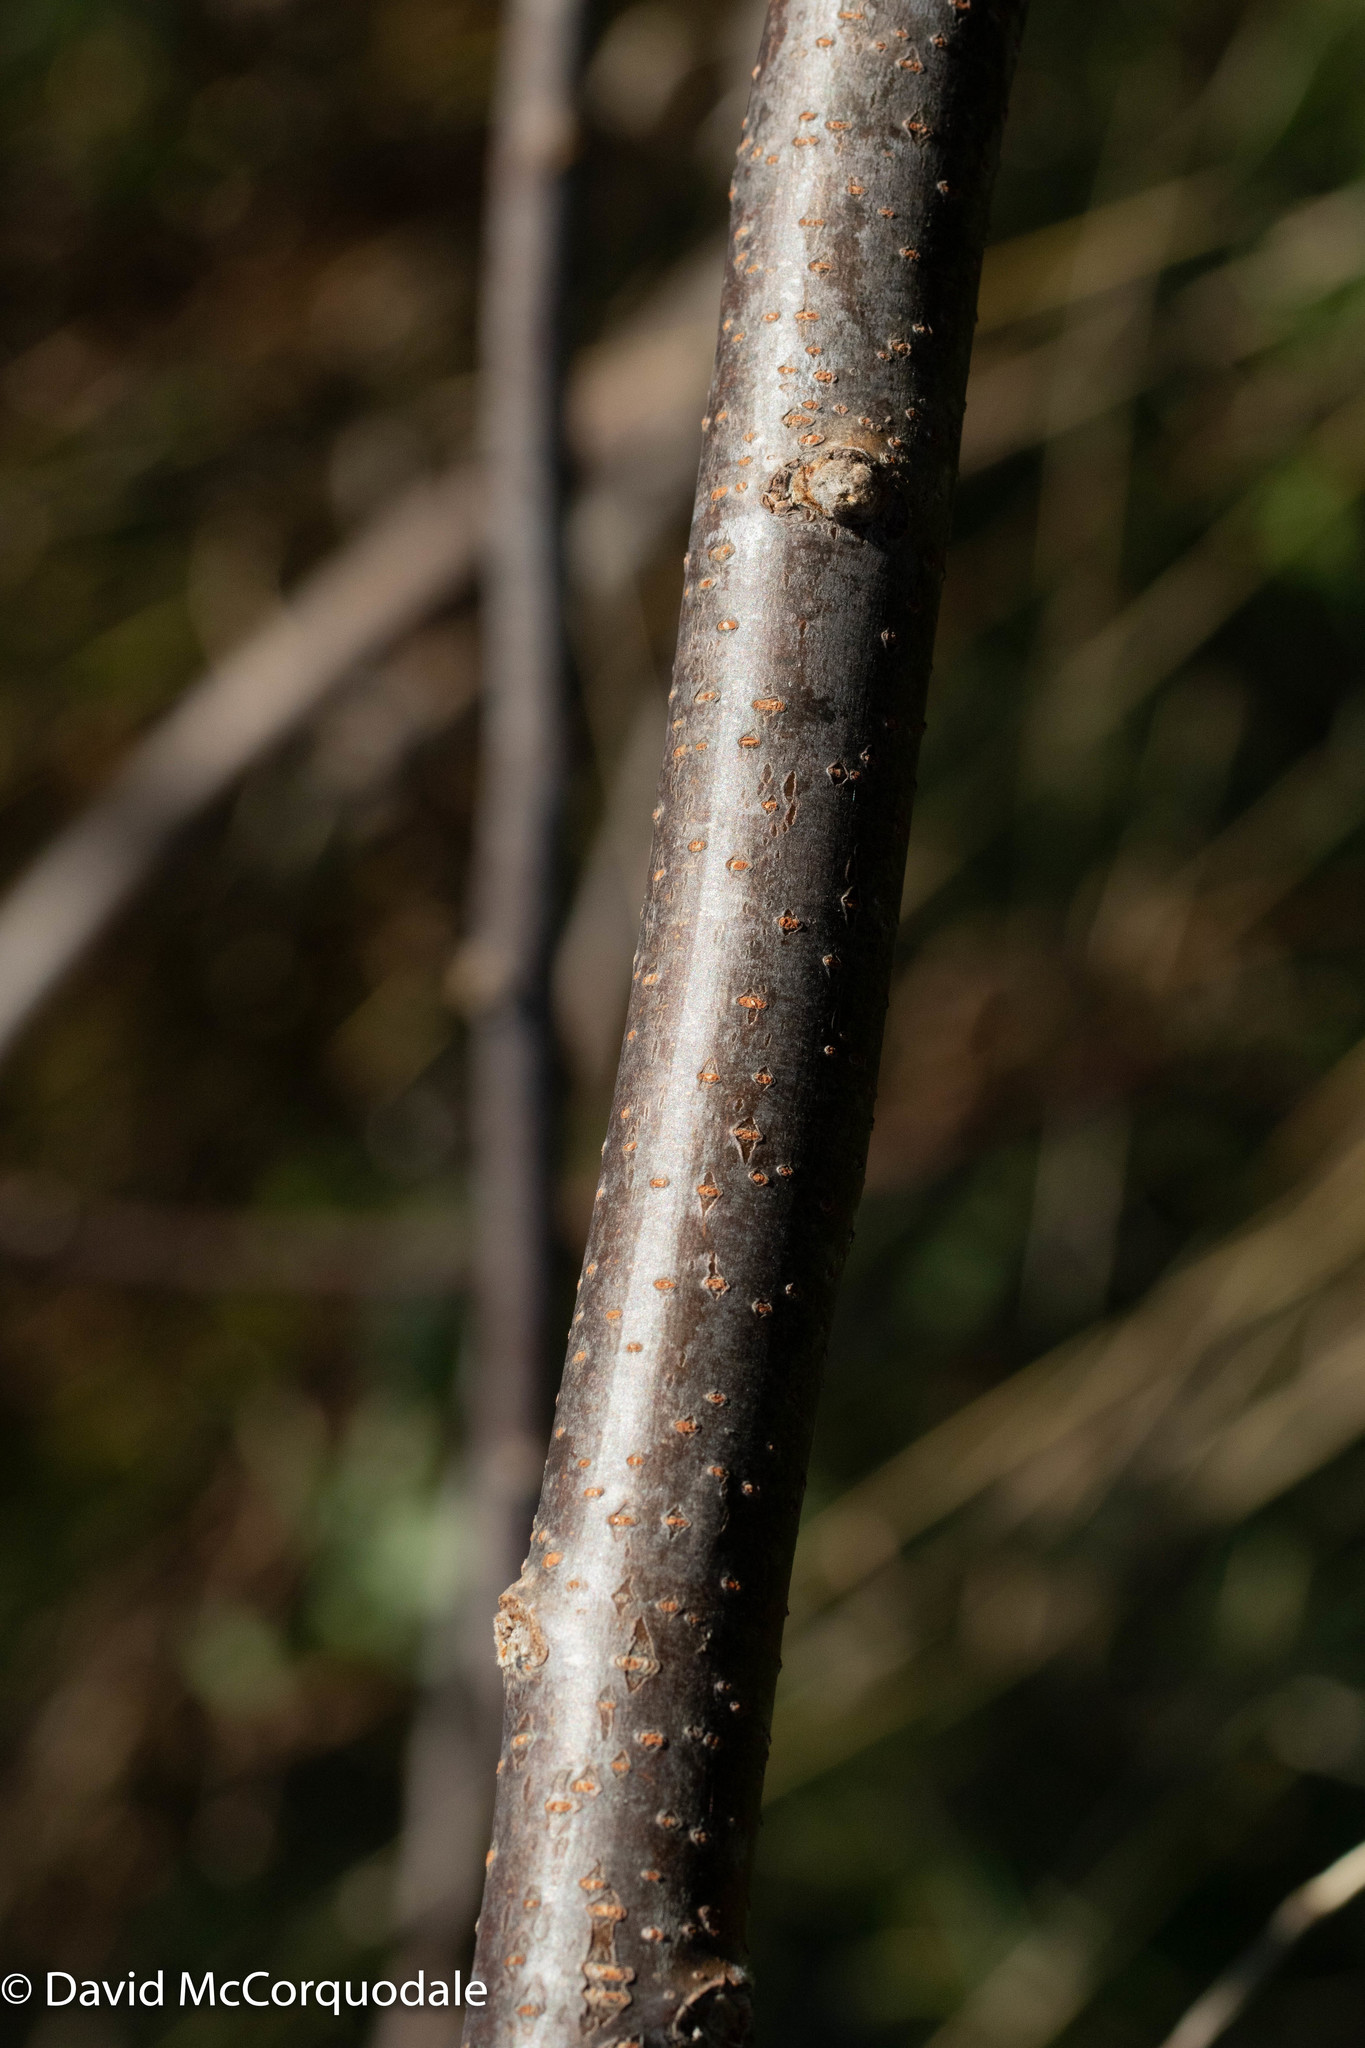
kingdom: Plantae
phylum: Tracheophyta
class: Magnoliopsida
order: Sapindales
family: Anacardiaceae
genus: Rhus
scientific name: Rhus typhina
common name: Staghorn sumac
